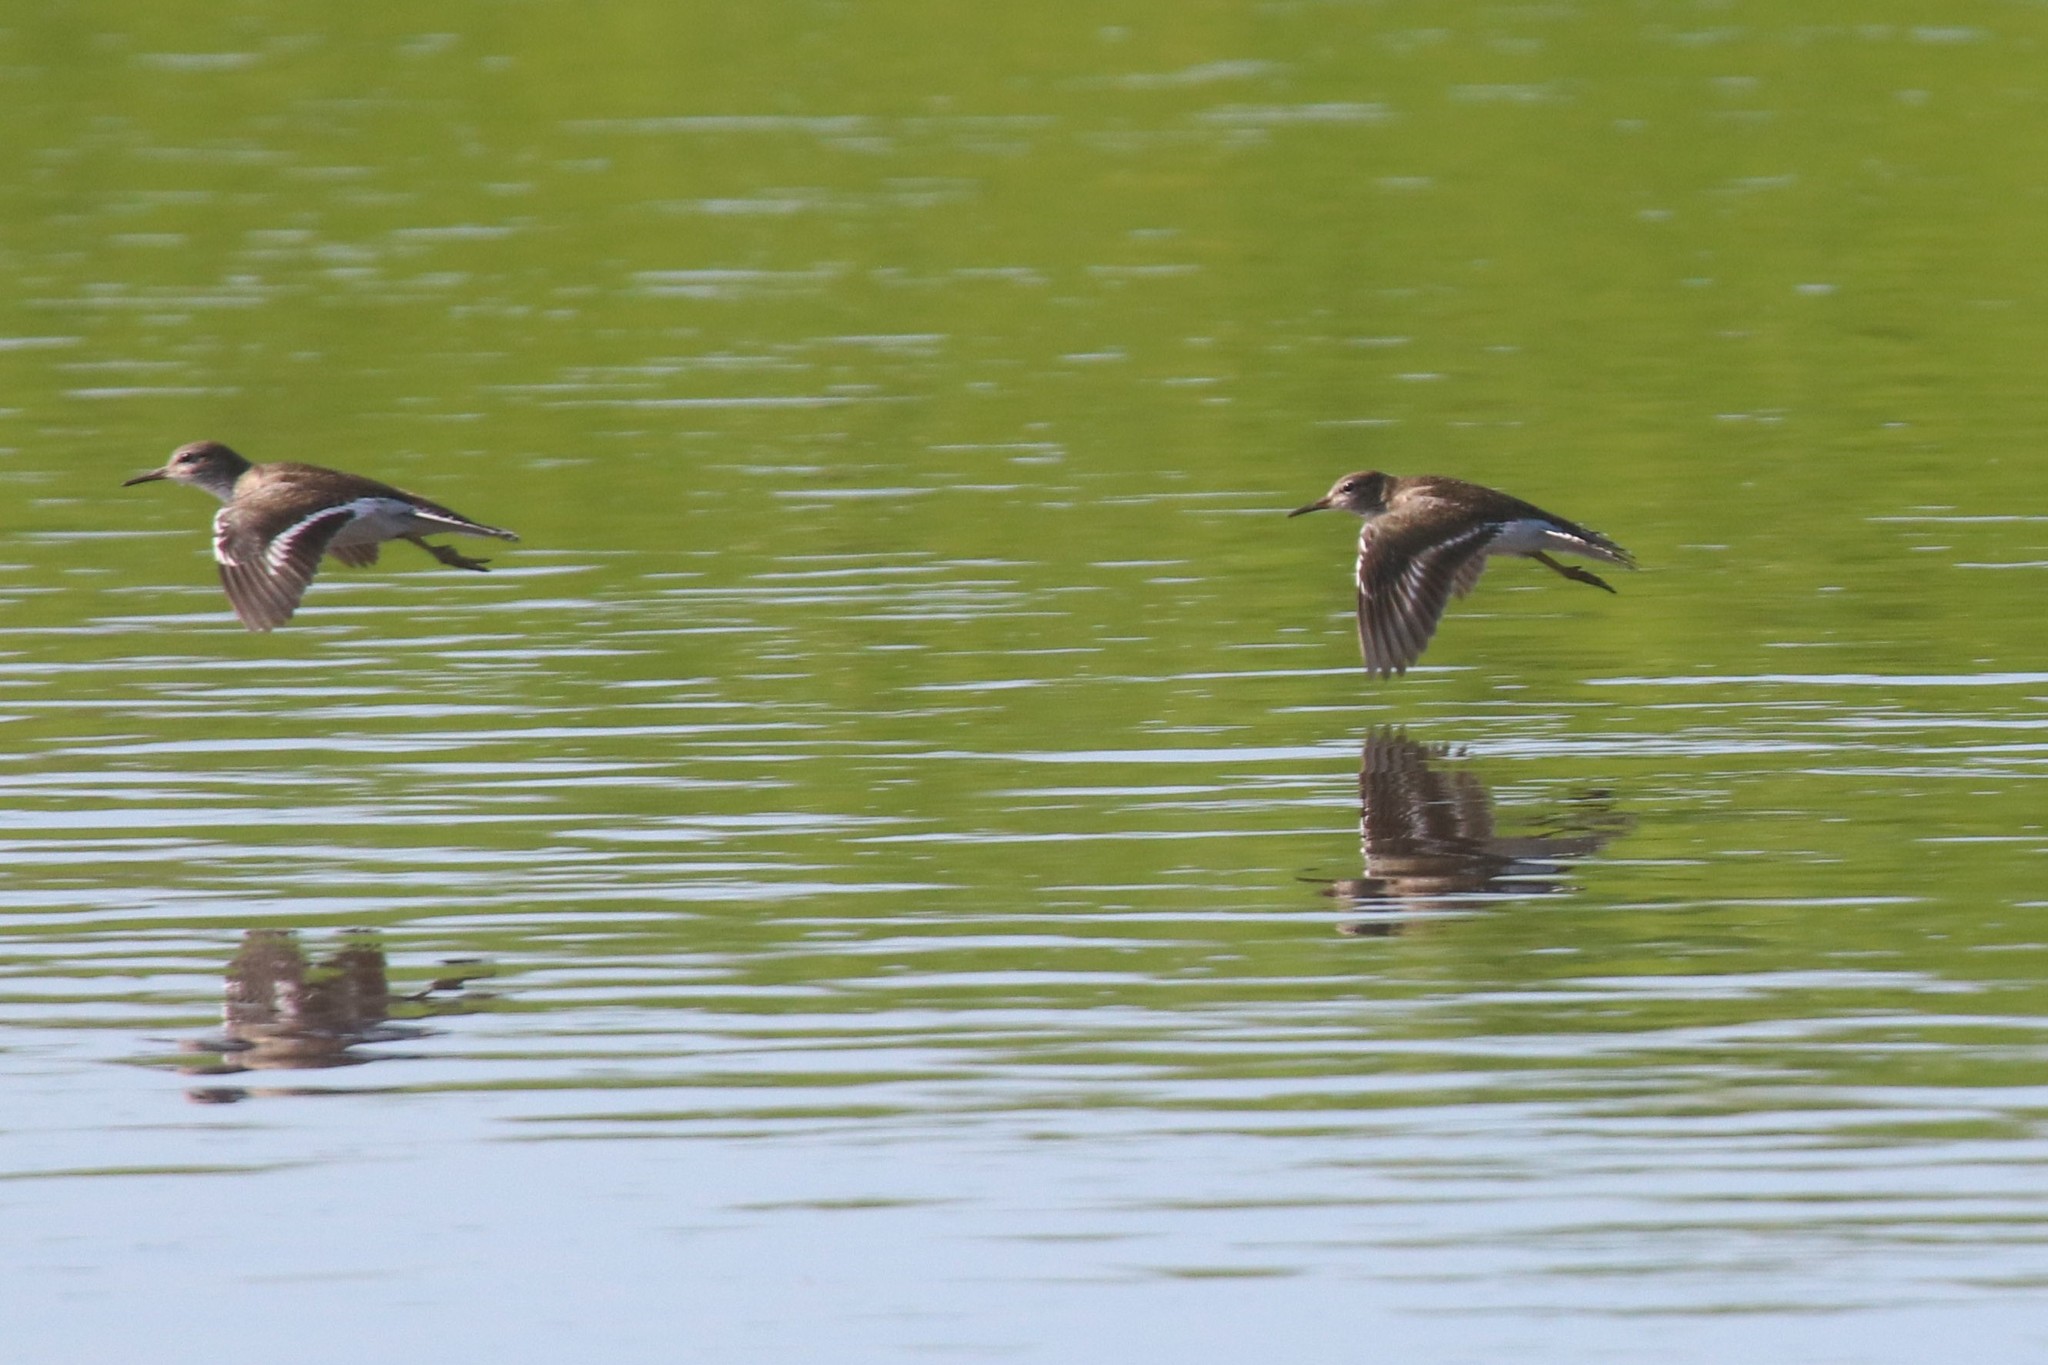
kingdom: Animalia
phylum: Chordata
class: Aves
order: Charadriiformes
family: Scolopacidae
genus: Actitis
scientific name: Actitis hypoleucos
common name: Common sandpiper
